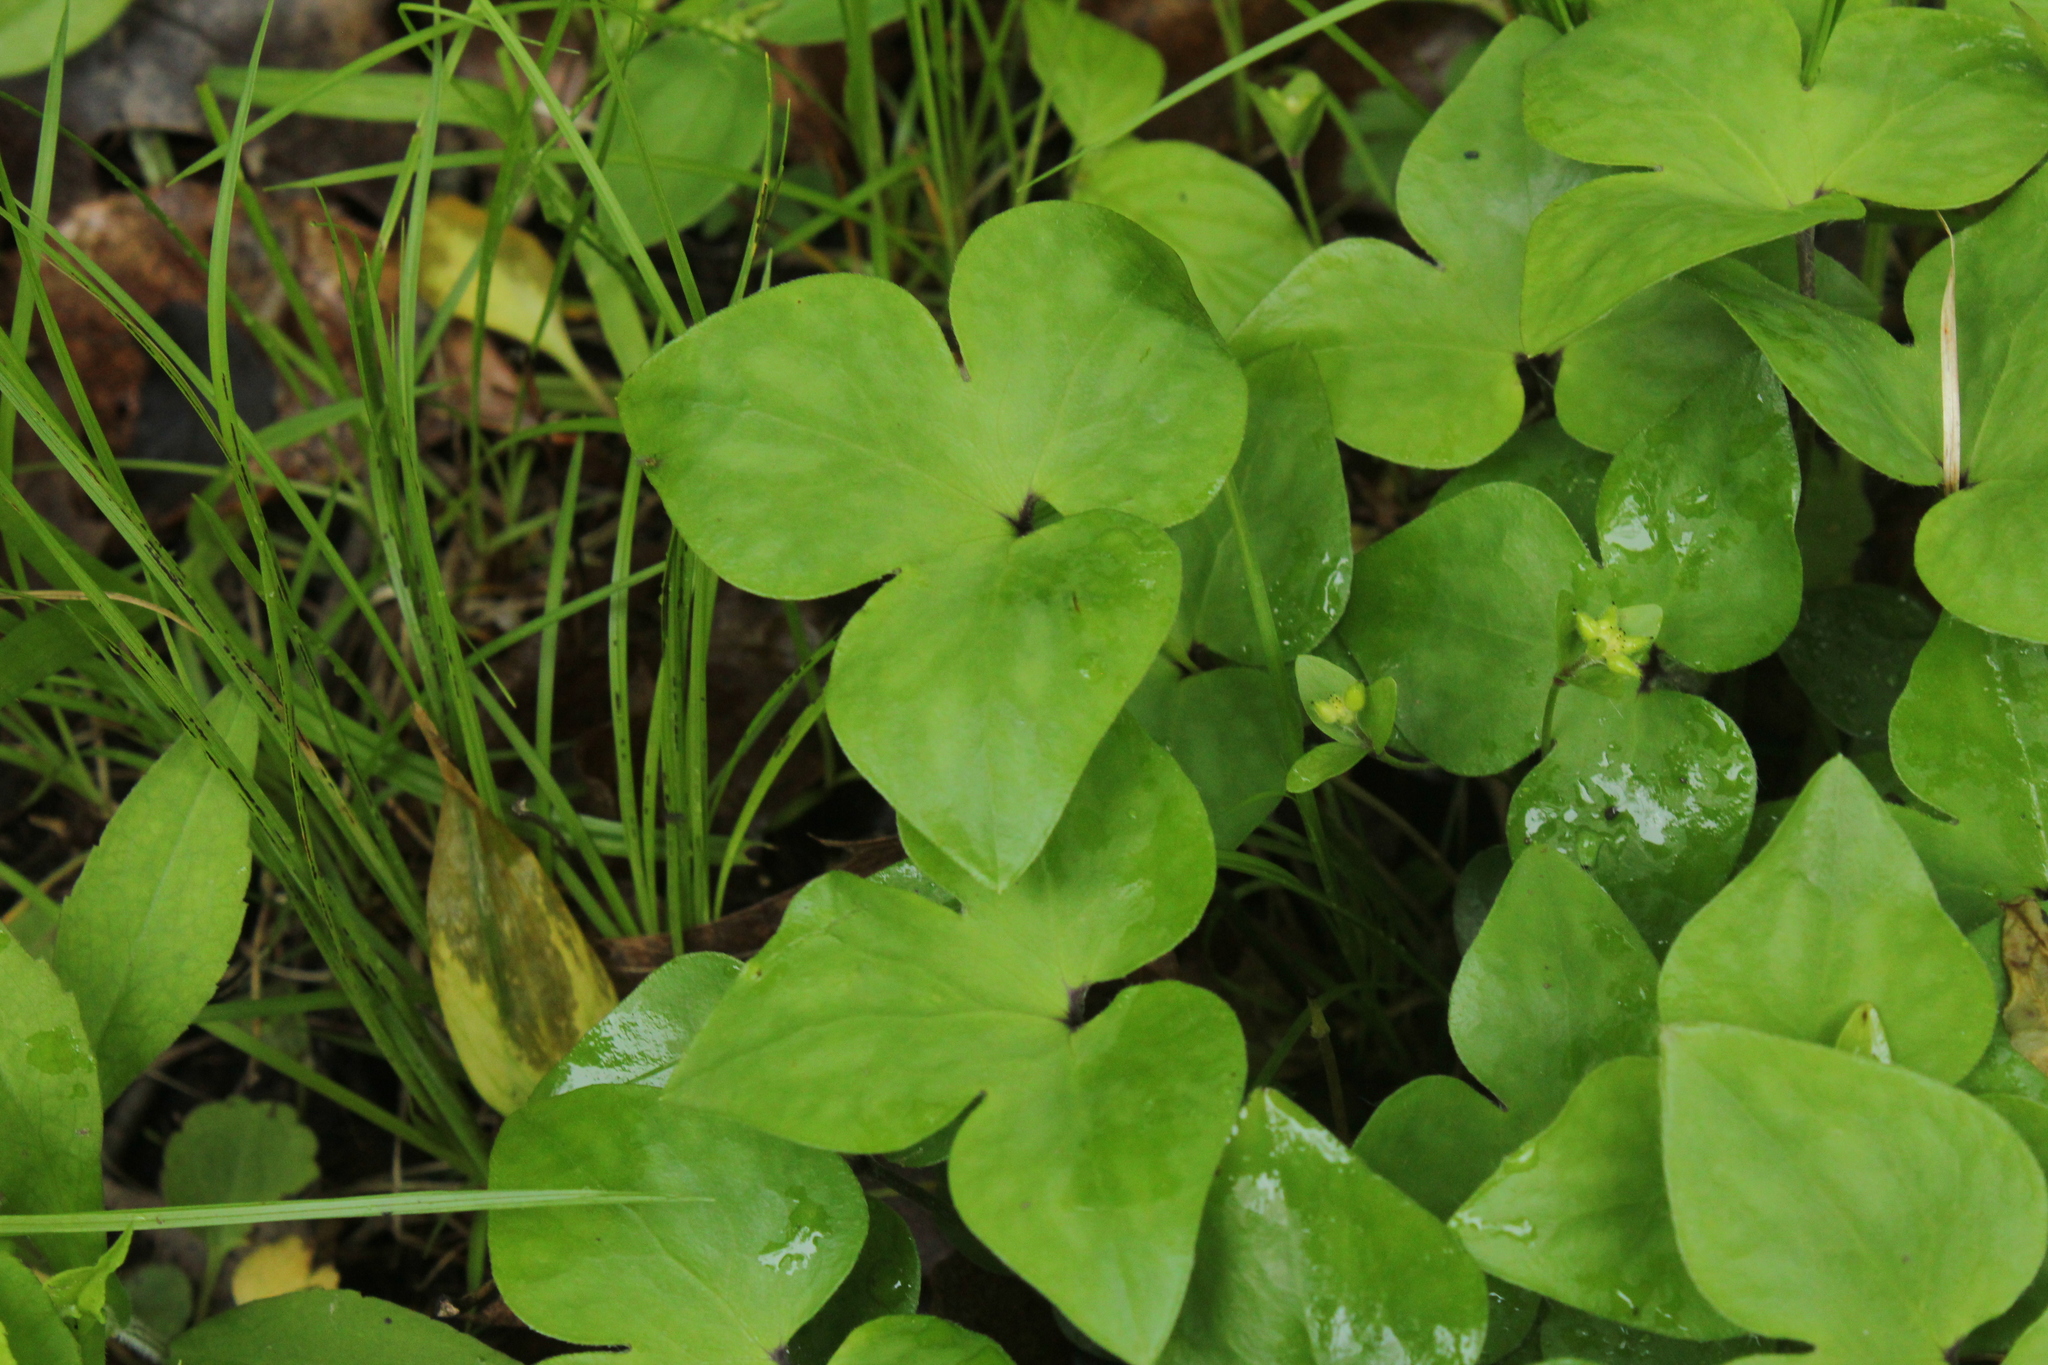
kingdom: Plantae
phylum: Tracheophyta
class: Magnoliopsida
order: Ranunculales
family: Ranunculaceae
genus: Hepatica
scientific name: Hepatica acutiloba
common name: Sharp-lobed hepatica
